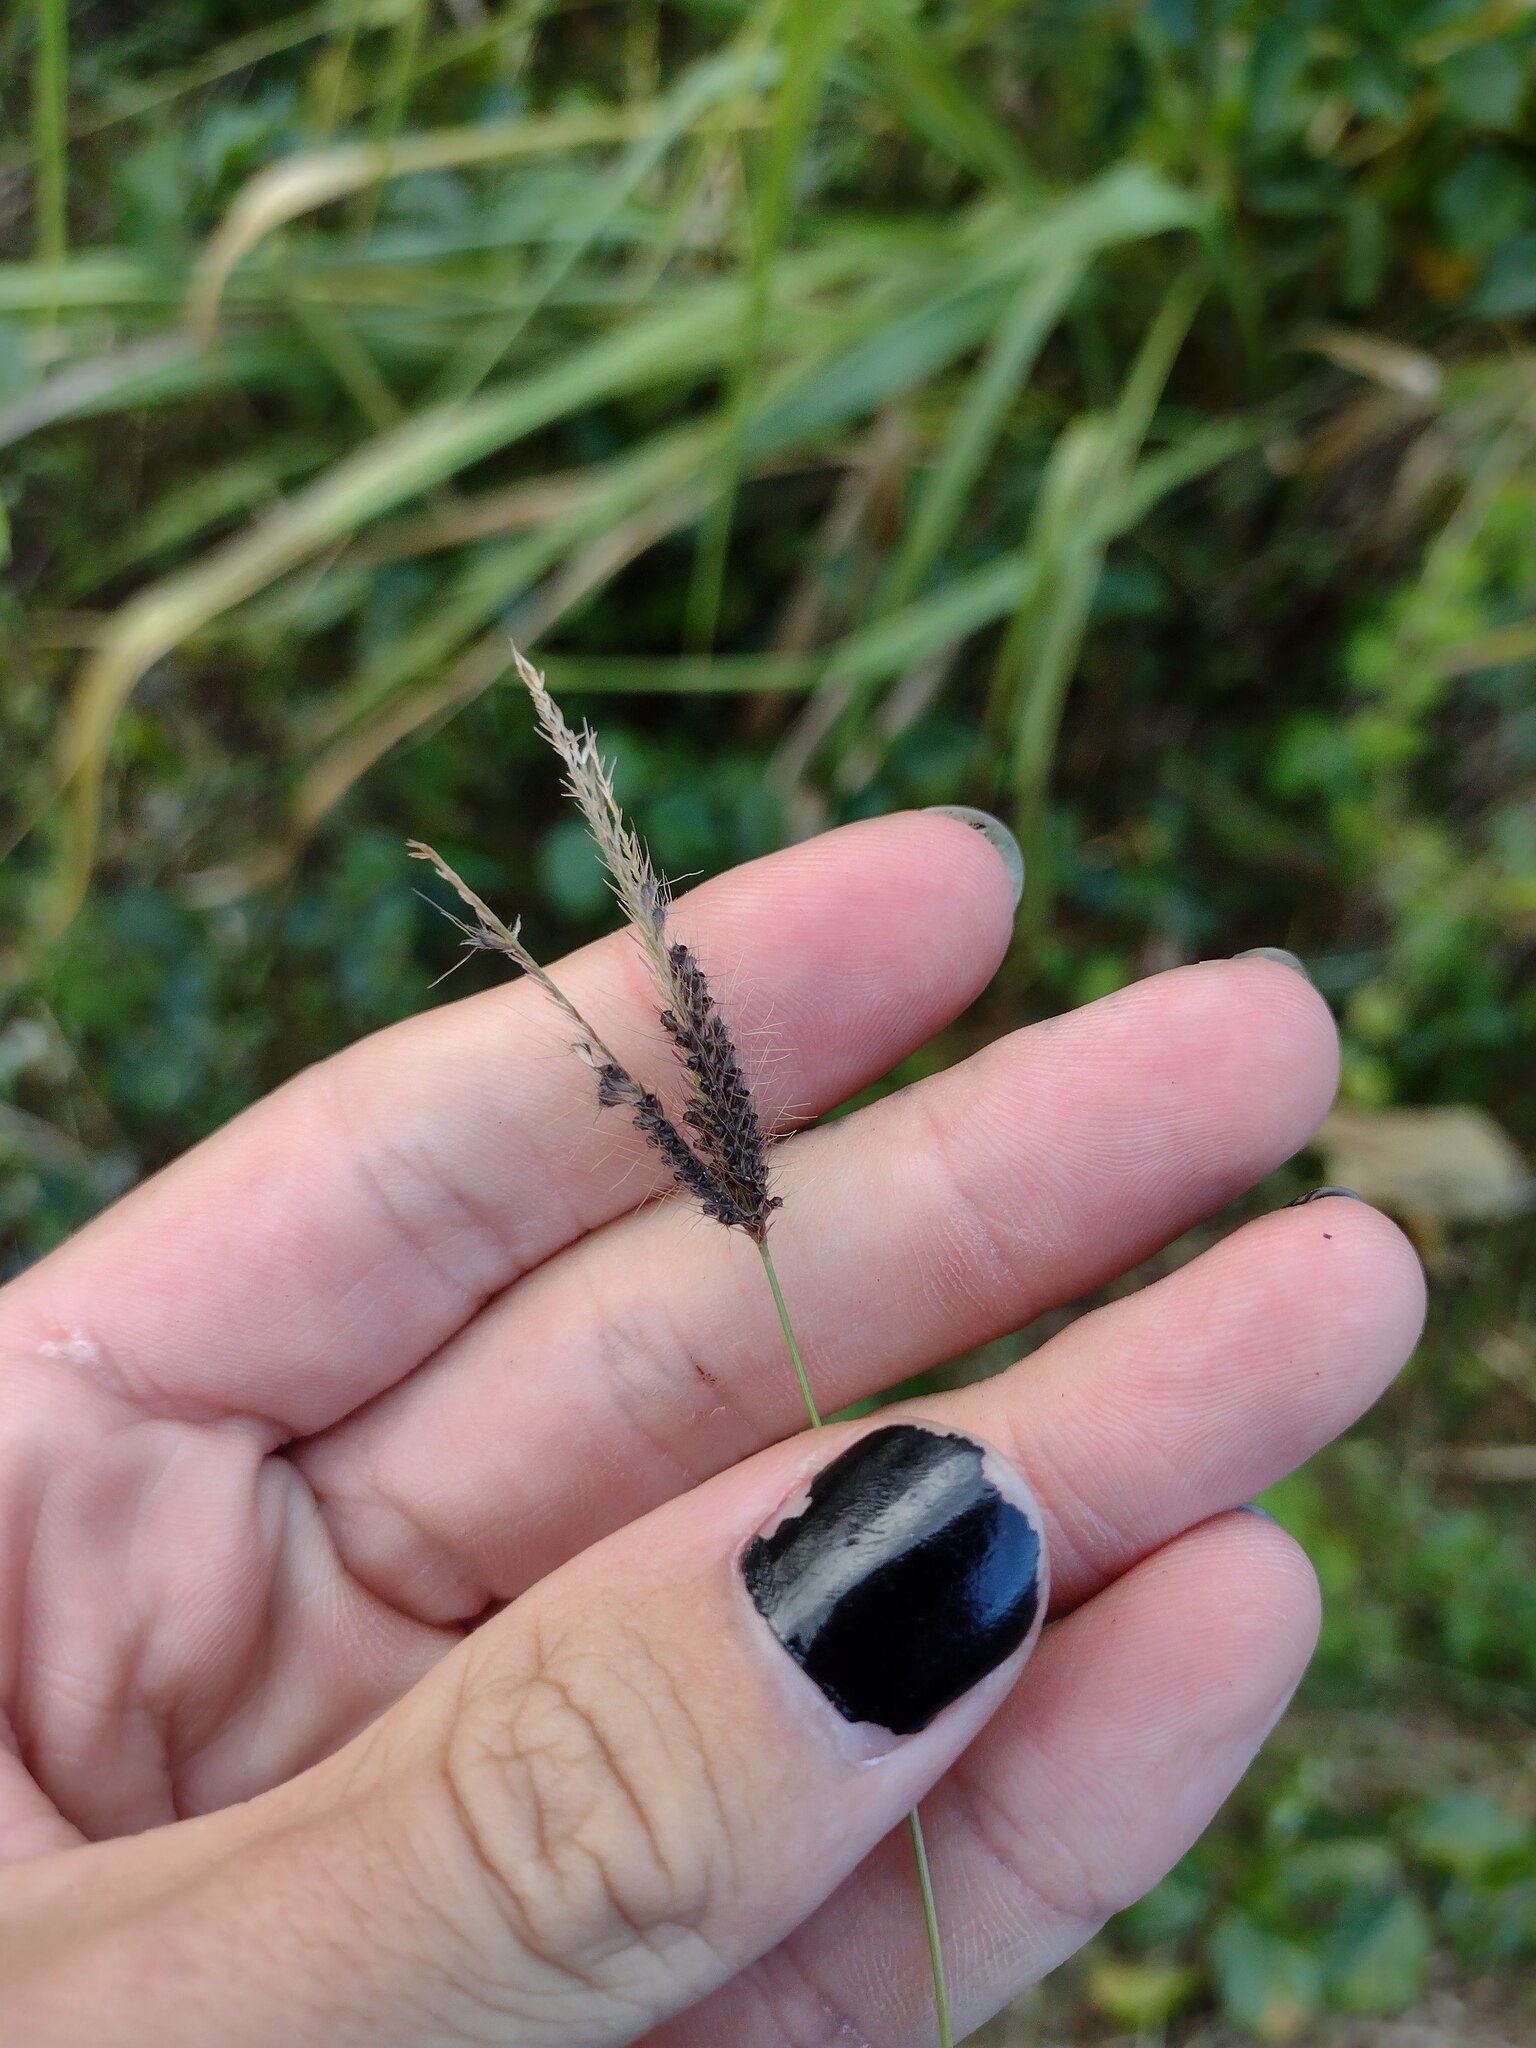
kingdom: Plantae
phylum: Tracheophyta
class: Liliopsida
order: Poales
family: Poaceae
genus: Chloris
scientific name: Chloris barbata
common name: Swollen fingergrass
